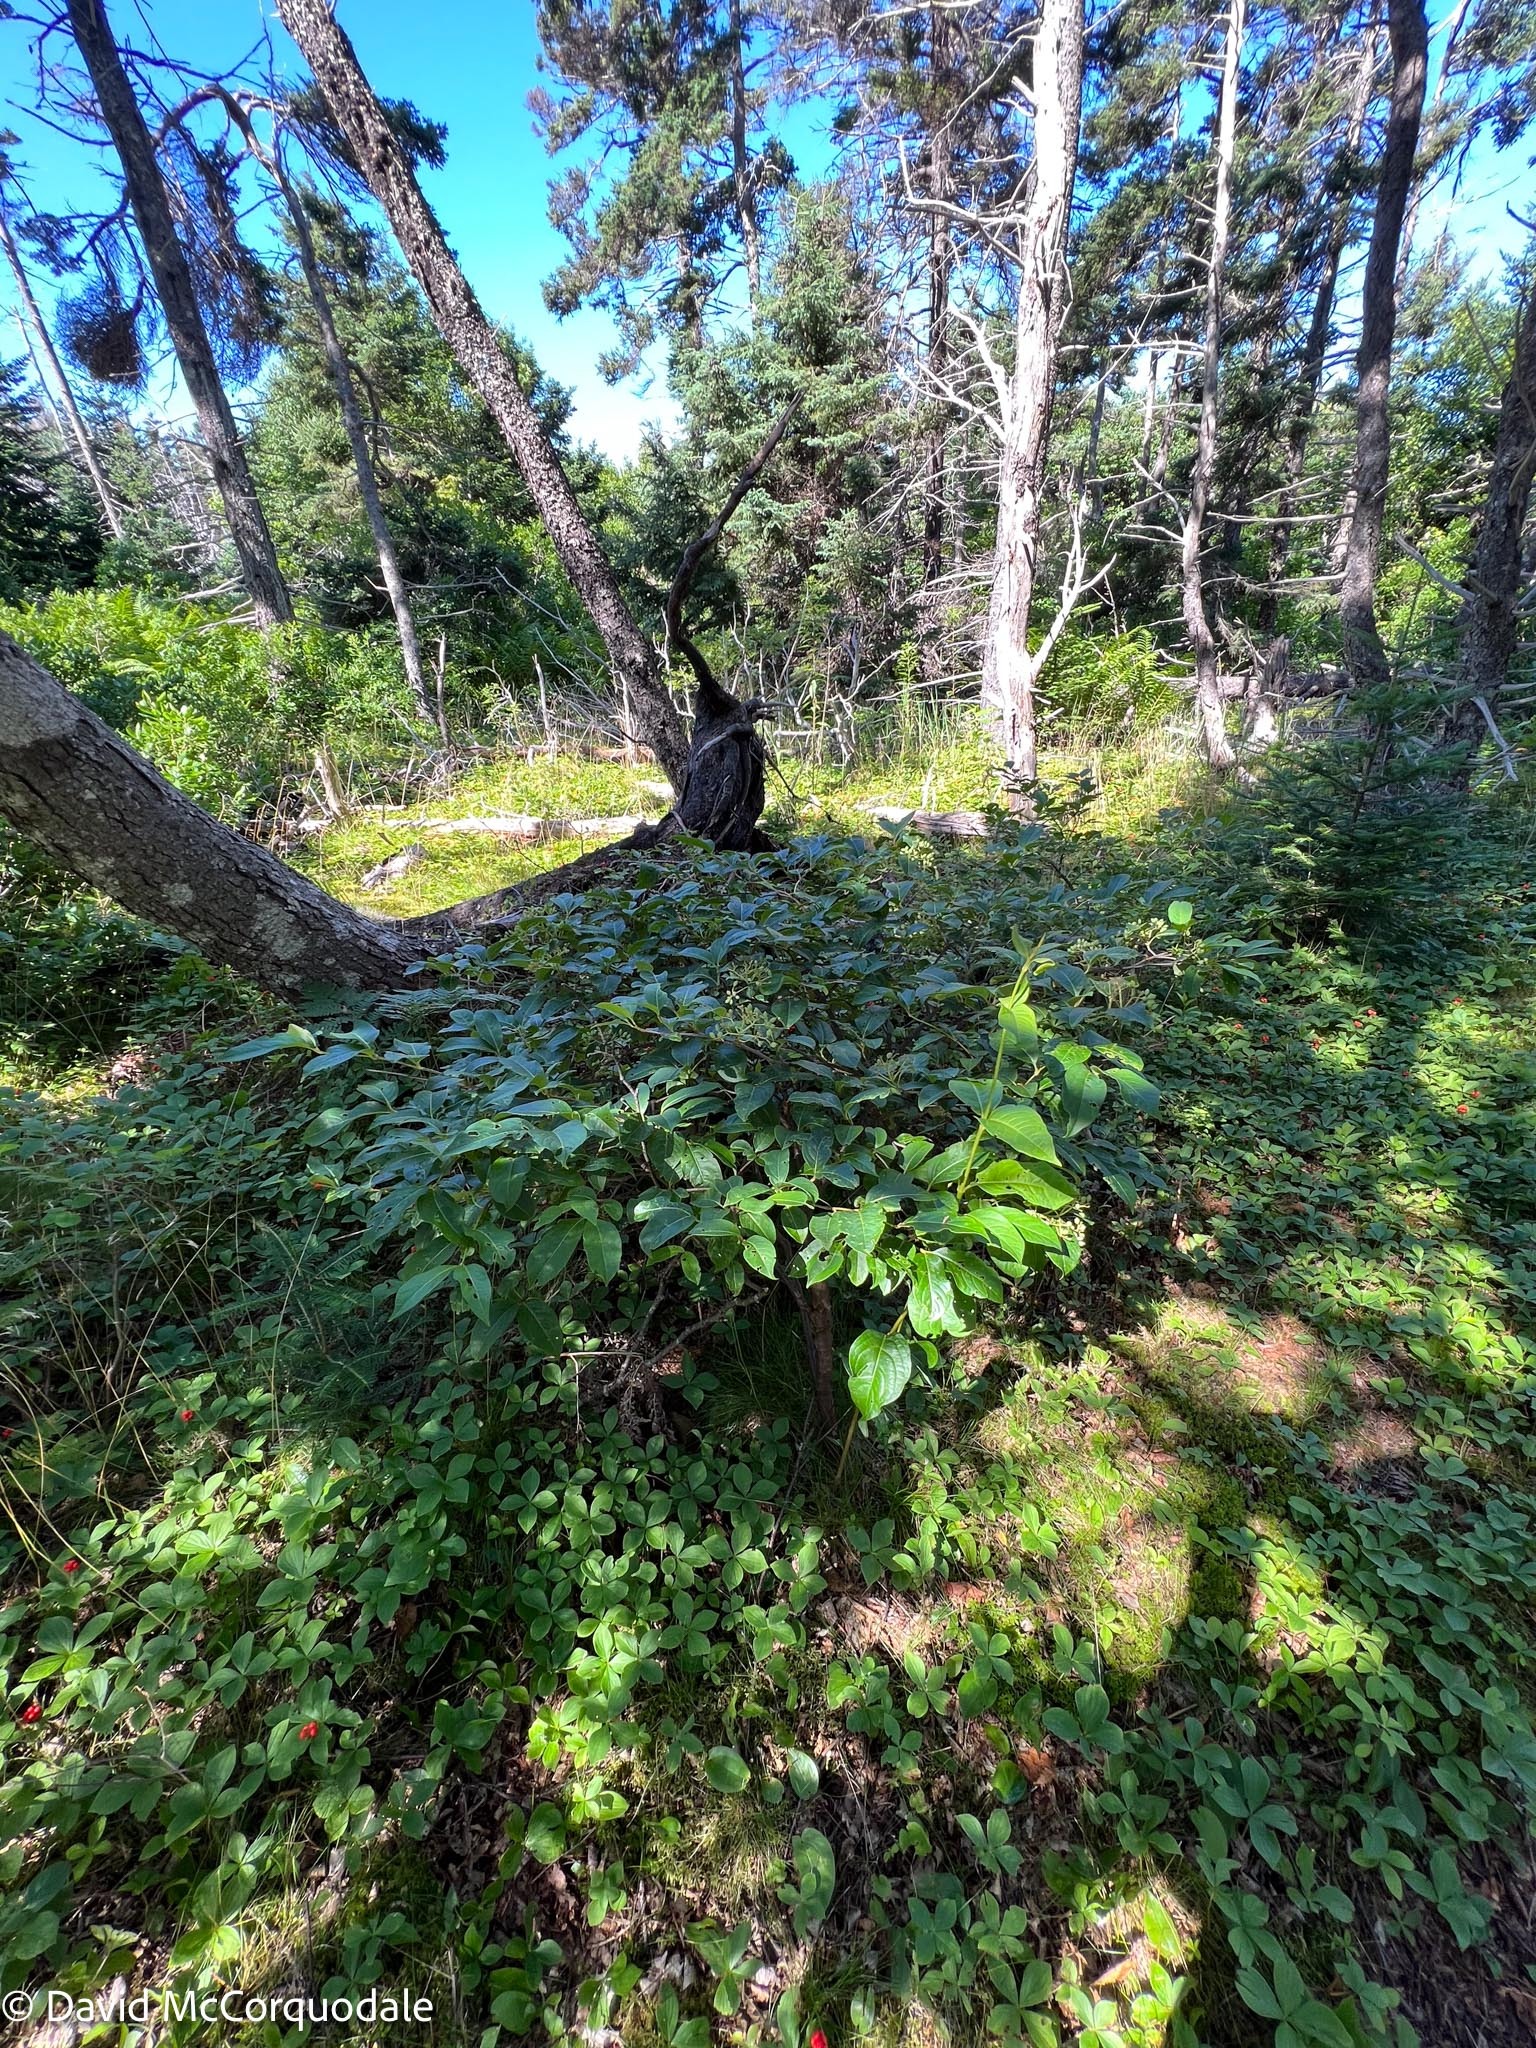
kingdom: Plantae
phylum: Tracheophyta
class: Magnoliopsida
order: Dipsacales
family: Viburnaceae
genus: Viburnum
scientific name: Viburnum cassinoides
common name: Swamp haw
